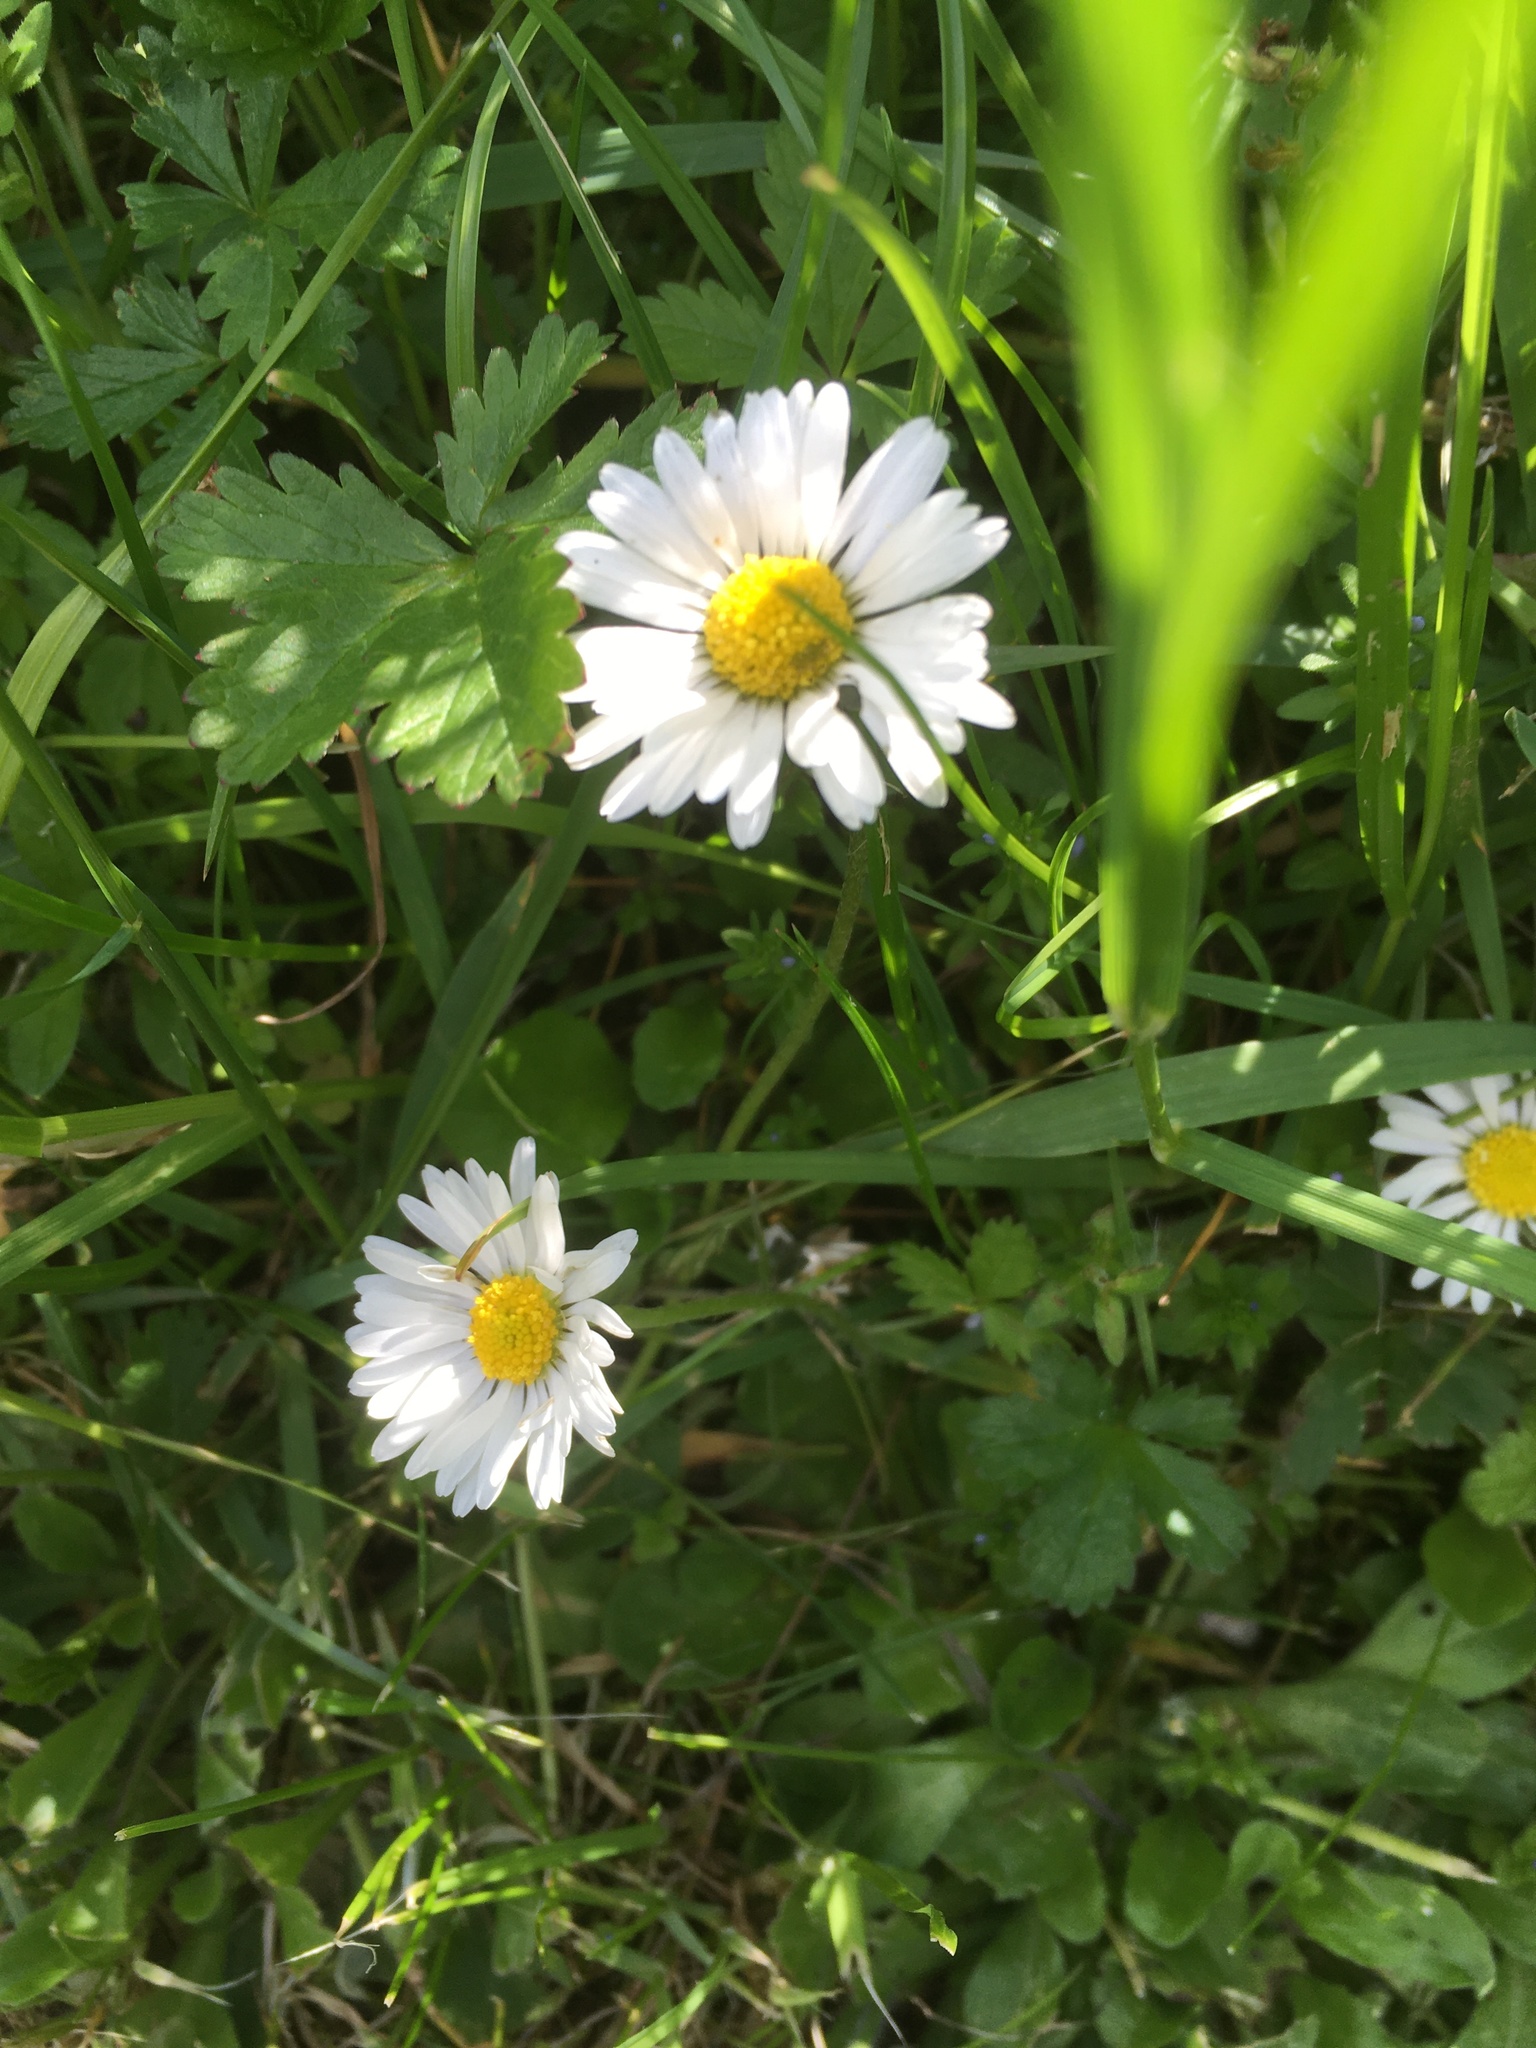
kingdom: Plantae
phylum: Tracheophyta
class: Magnoliopsida
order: Asterales
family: Asteraceae
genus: Bellis
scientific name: Bellis perennis
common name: Lawndaisy
